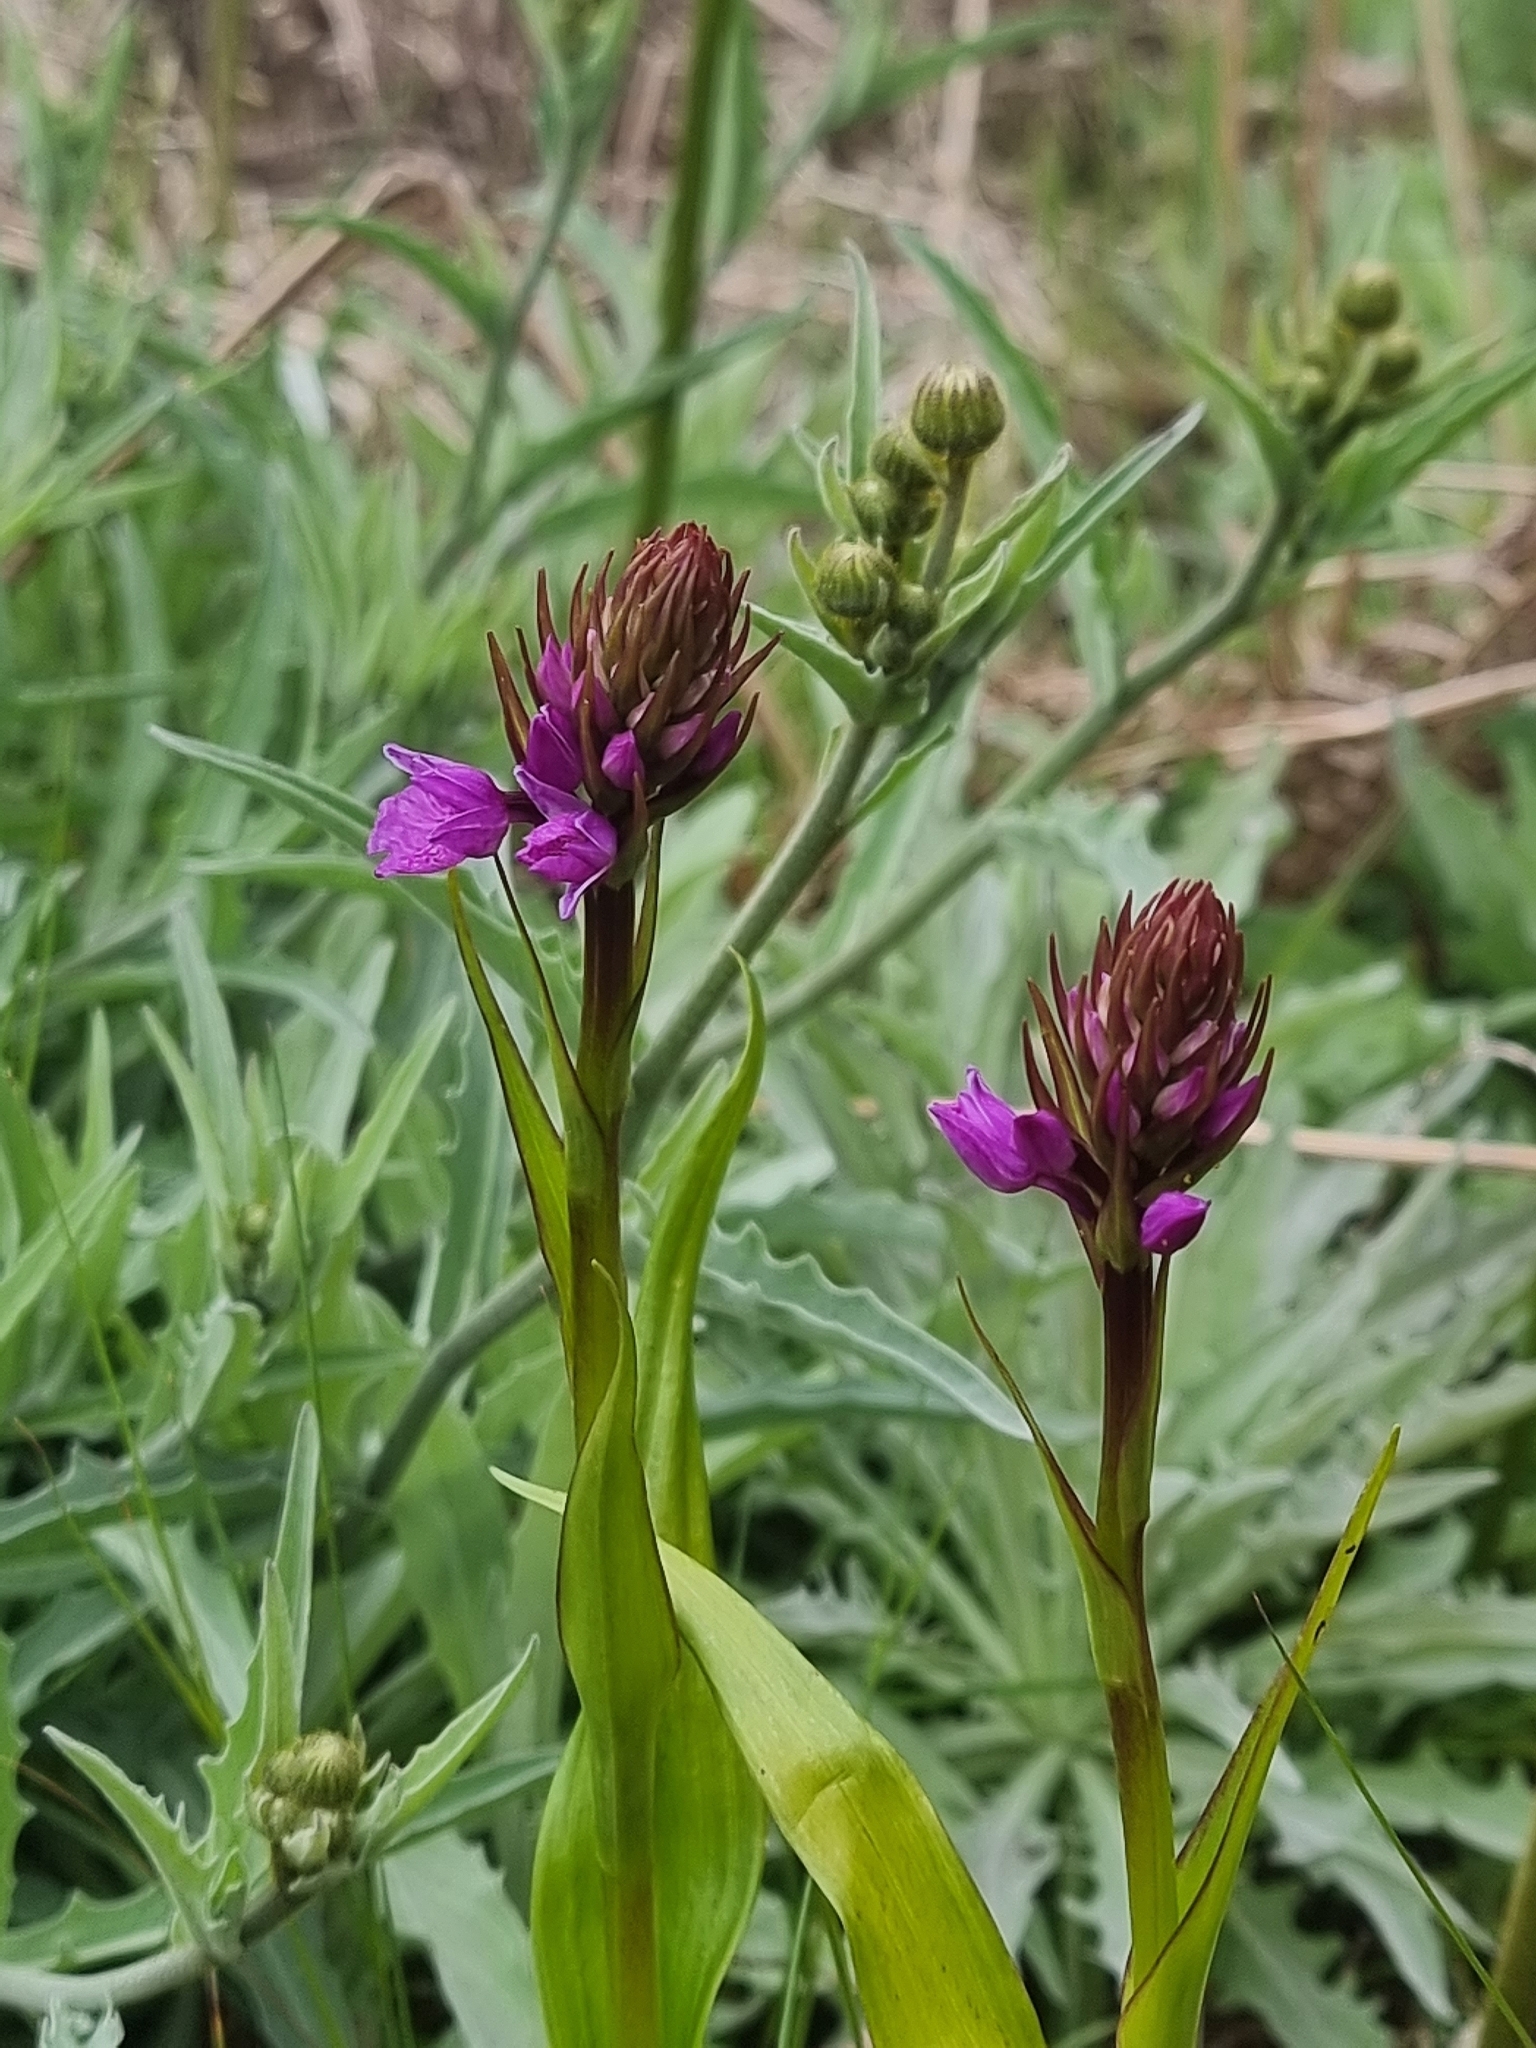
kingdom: Plantae
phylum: Tracheophyta
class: Liliopsida
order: Asparagales
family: Orchidaceae
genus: Dactylorhiza
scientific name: Dactylorhiza foliosa
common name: Richly-leaved dactylorhiza
